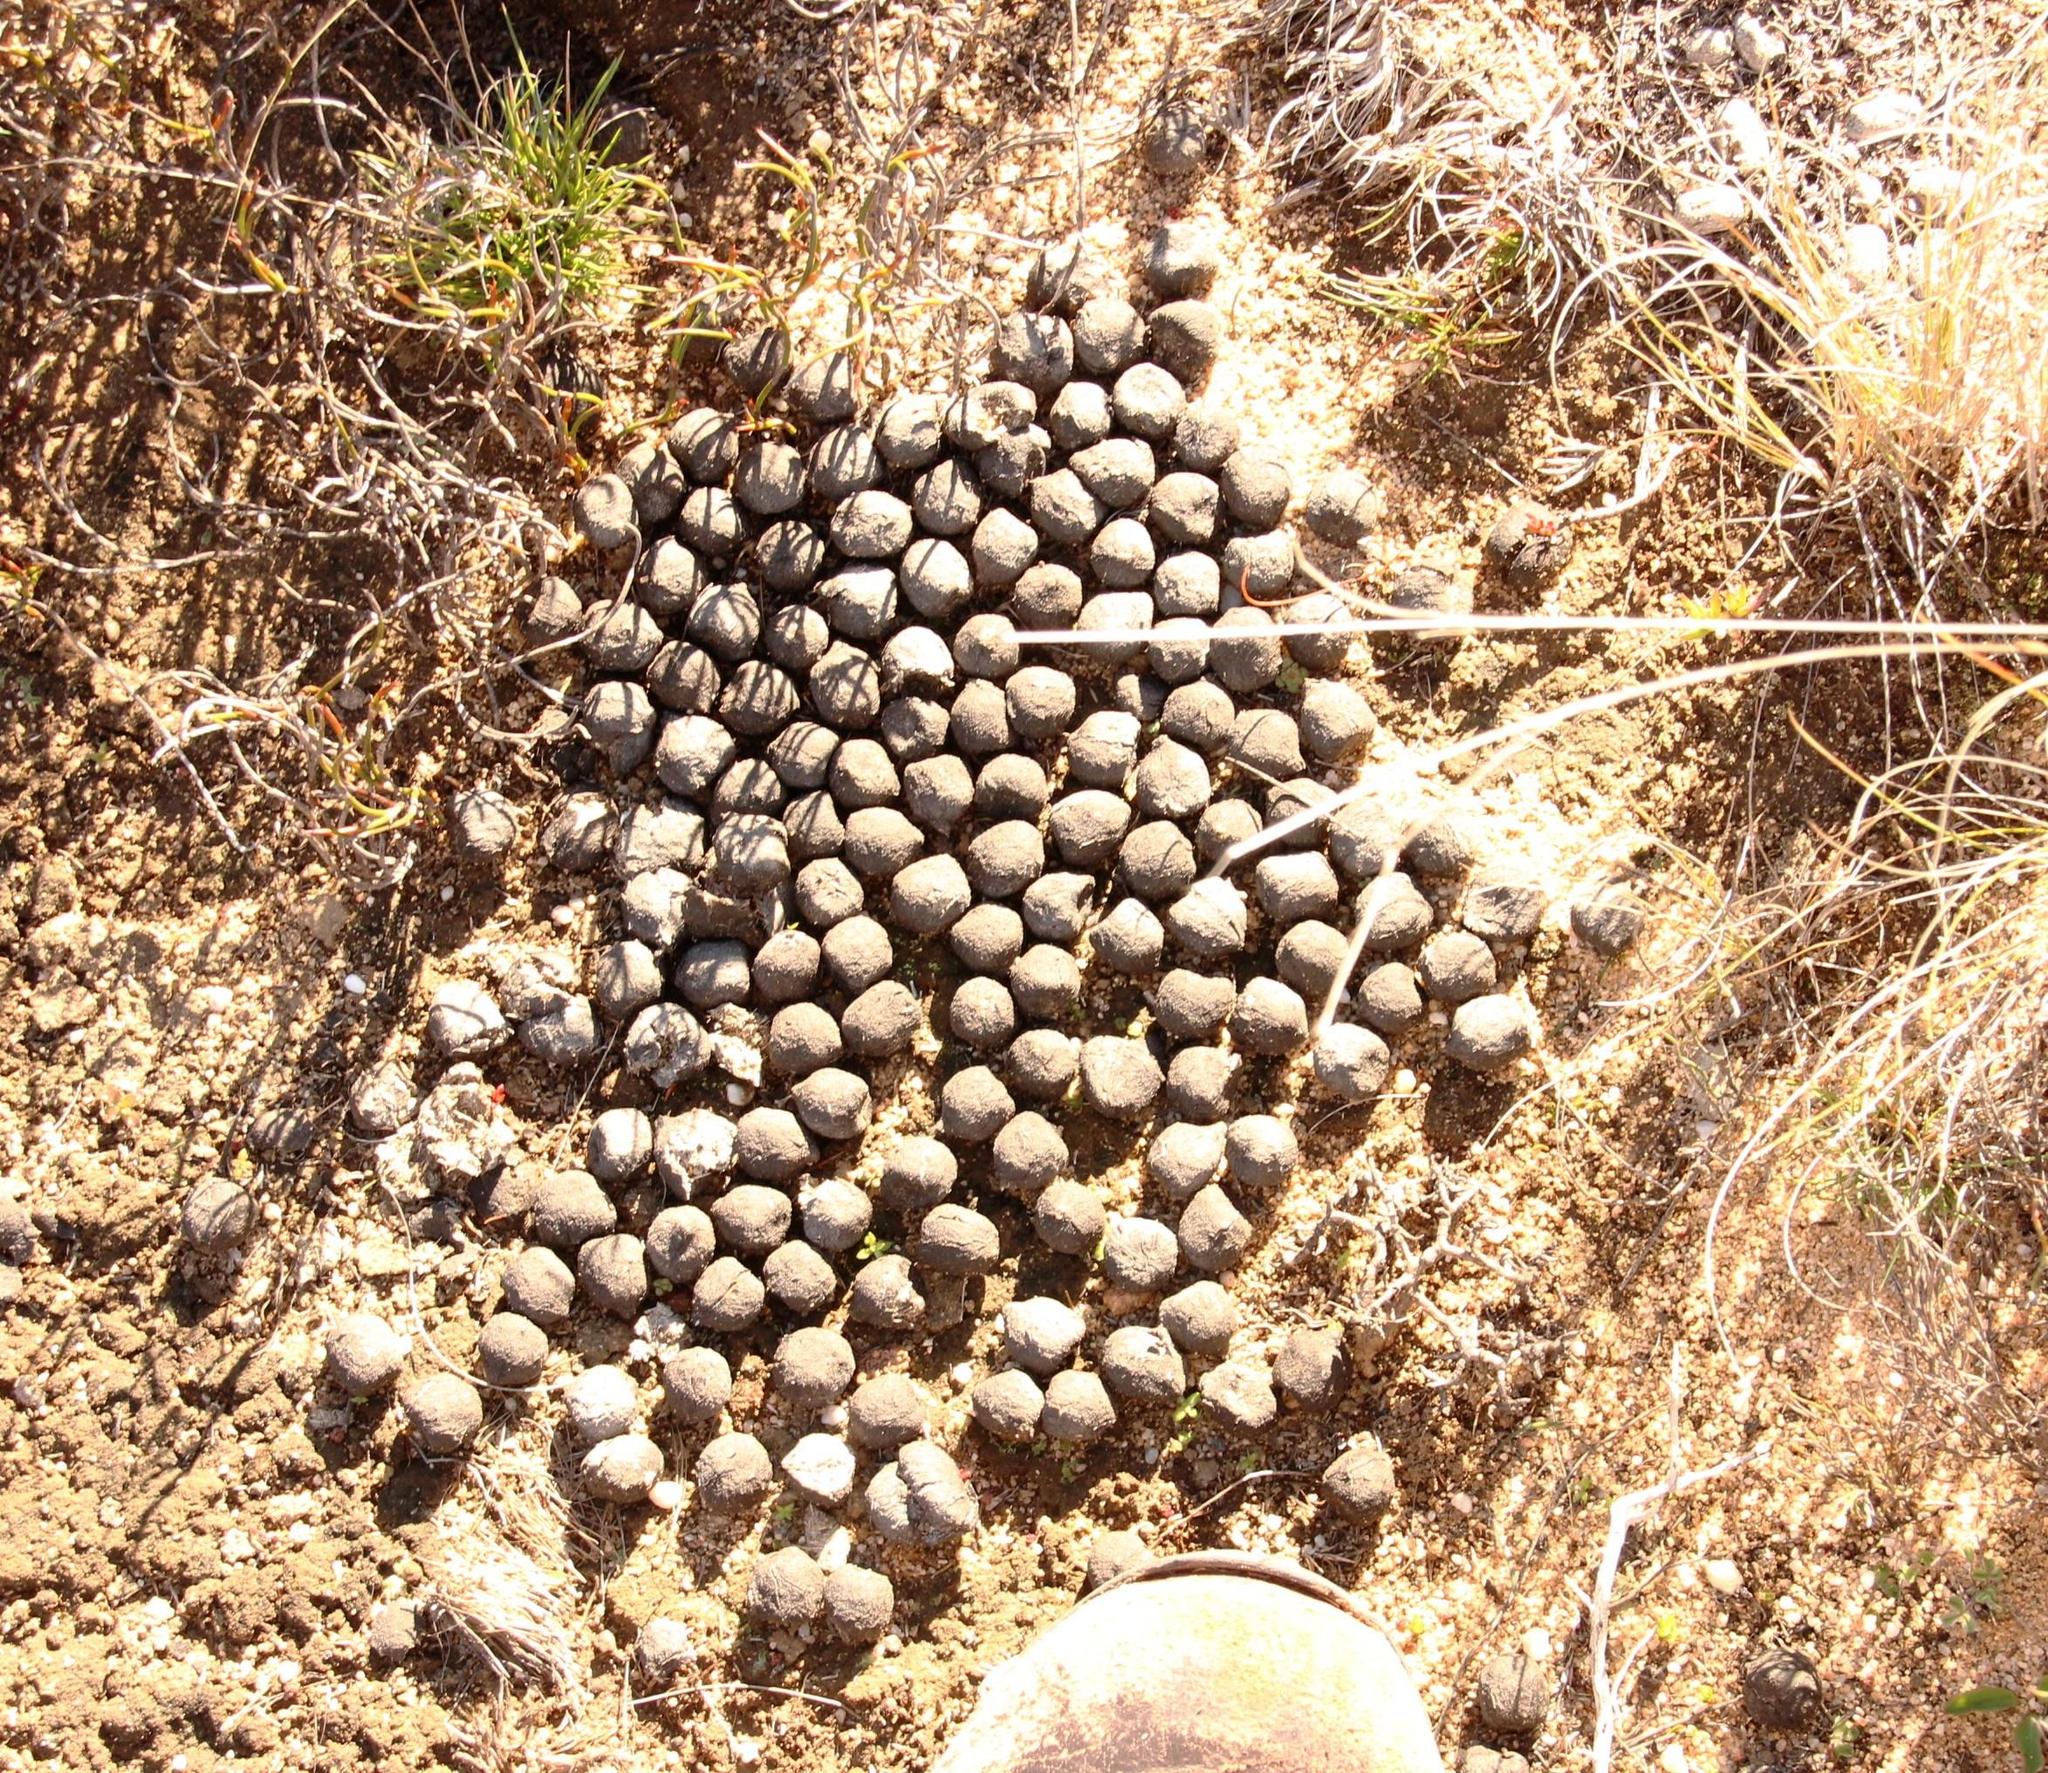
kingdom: Animalia
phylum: Chordata
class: Mammalia
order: Artiodactyla
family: Giraffidae
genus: Giraffa
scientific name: Giraffa giraffa
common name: Southern giraffe
